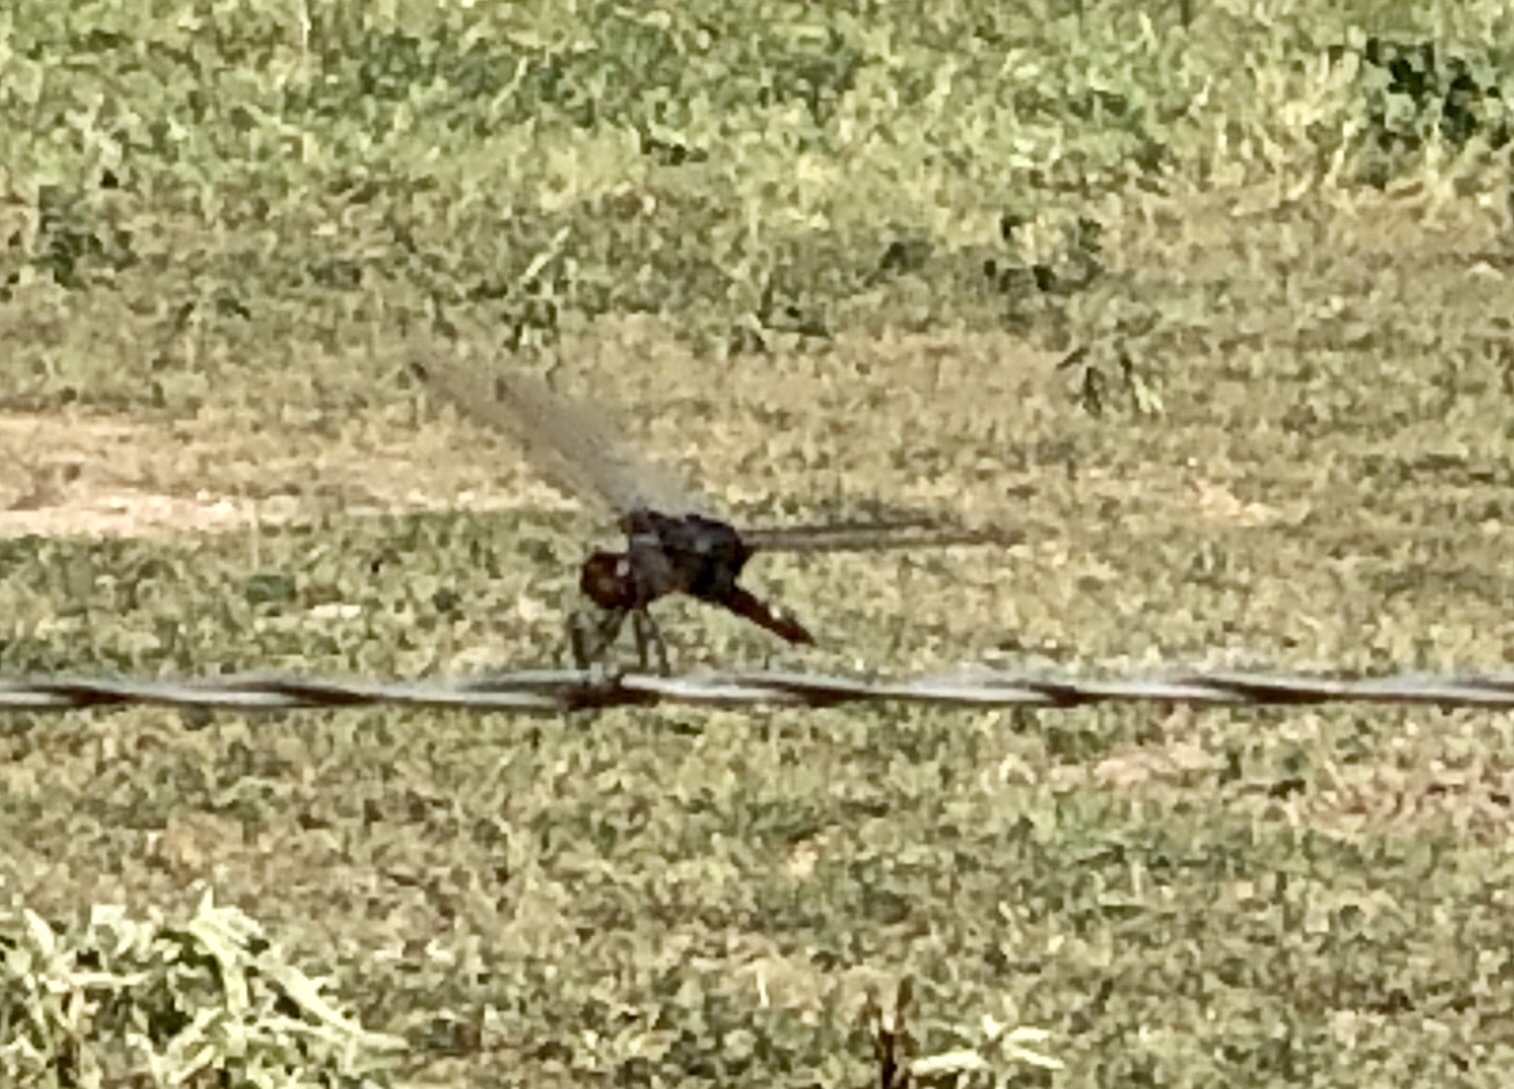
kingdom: Animalia
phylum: Arthropoda
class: Insecta
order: Odonata
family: Libellulidae
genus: Tramea
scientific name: Tramea lacerata
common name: Black saddlebags
